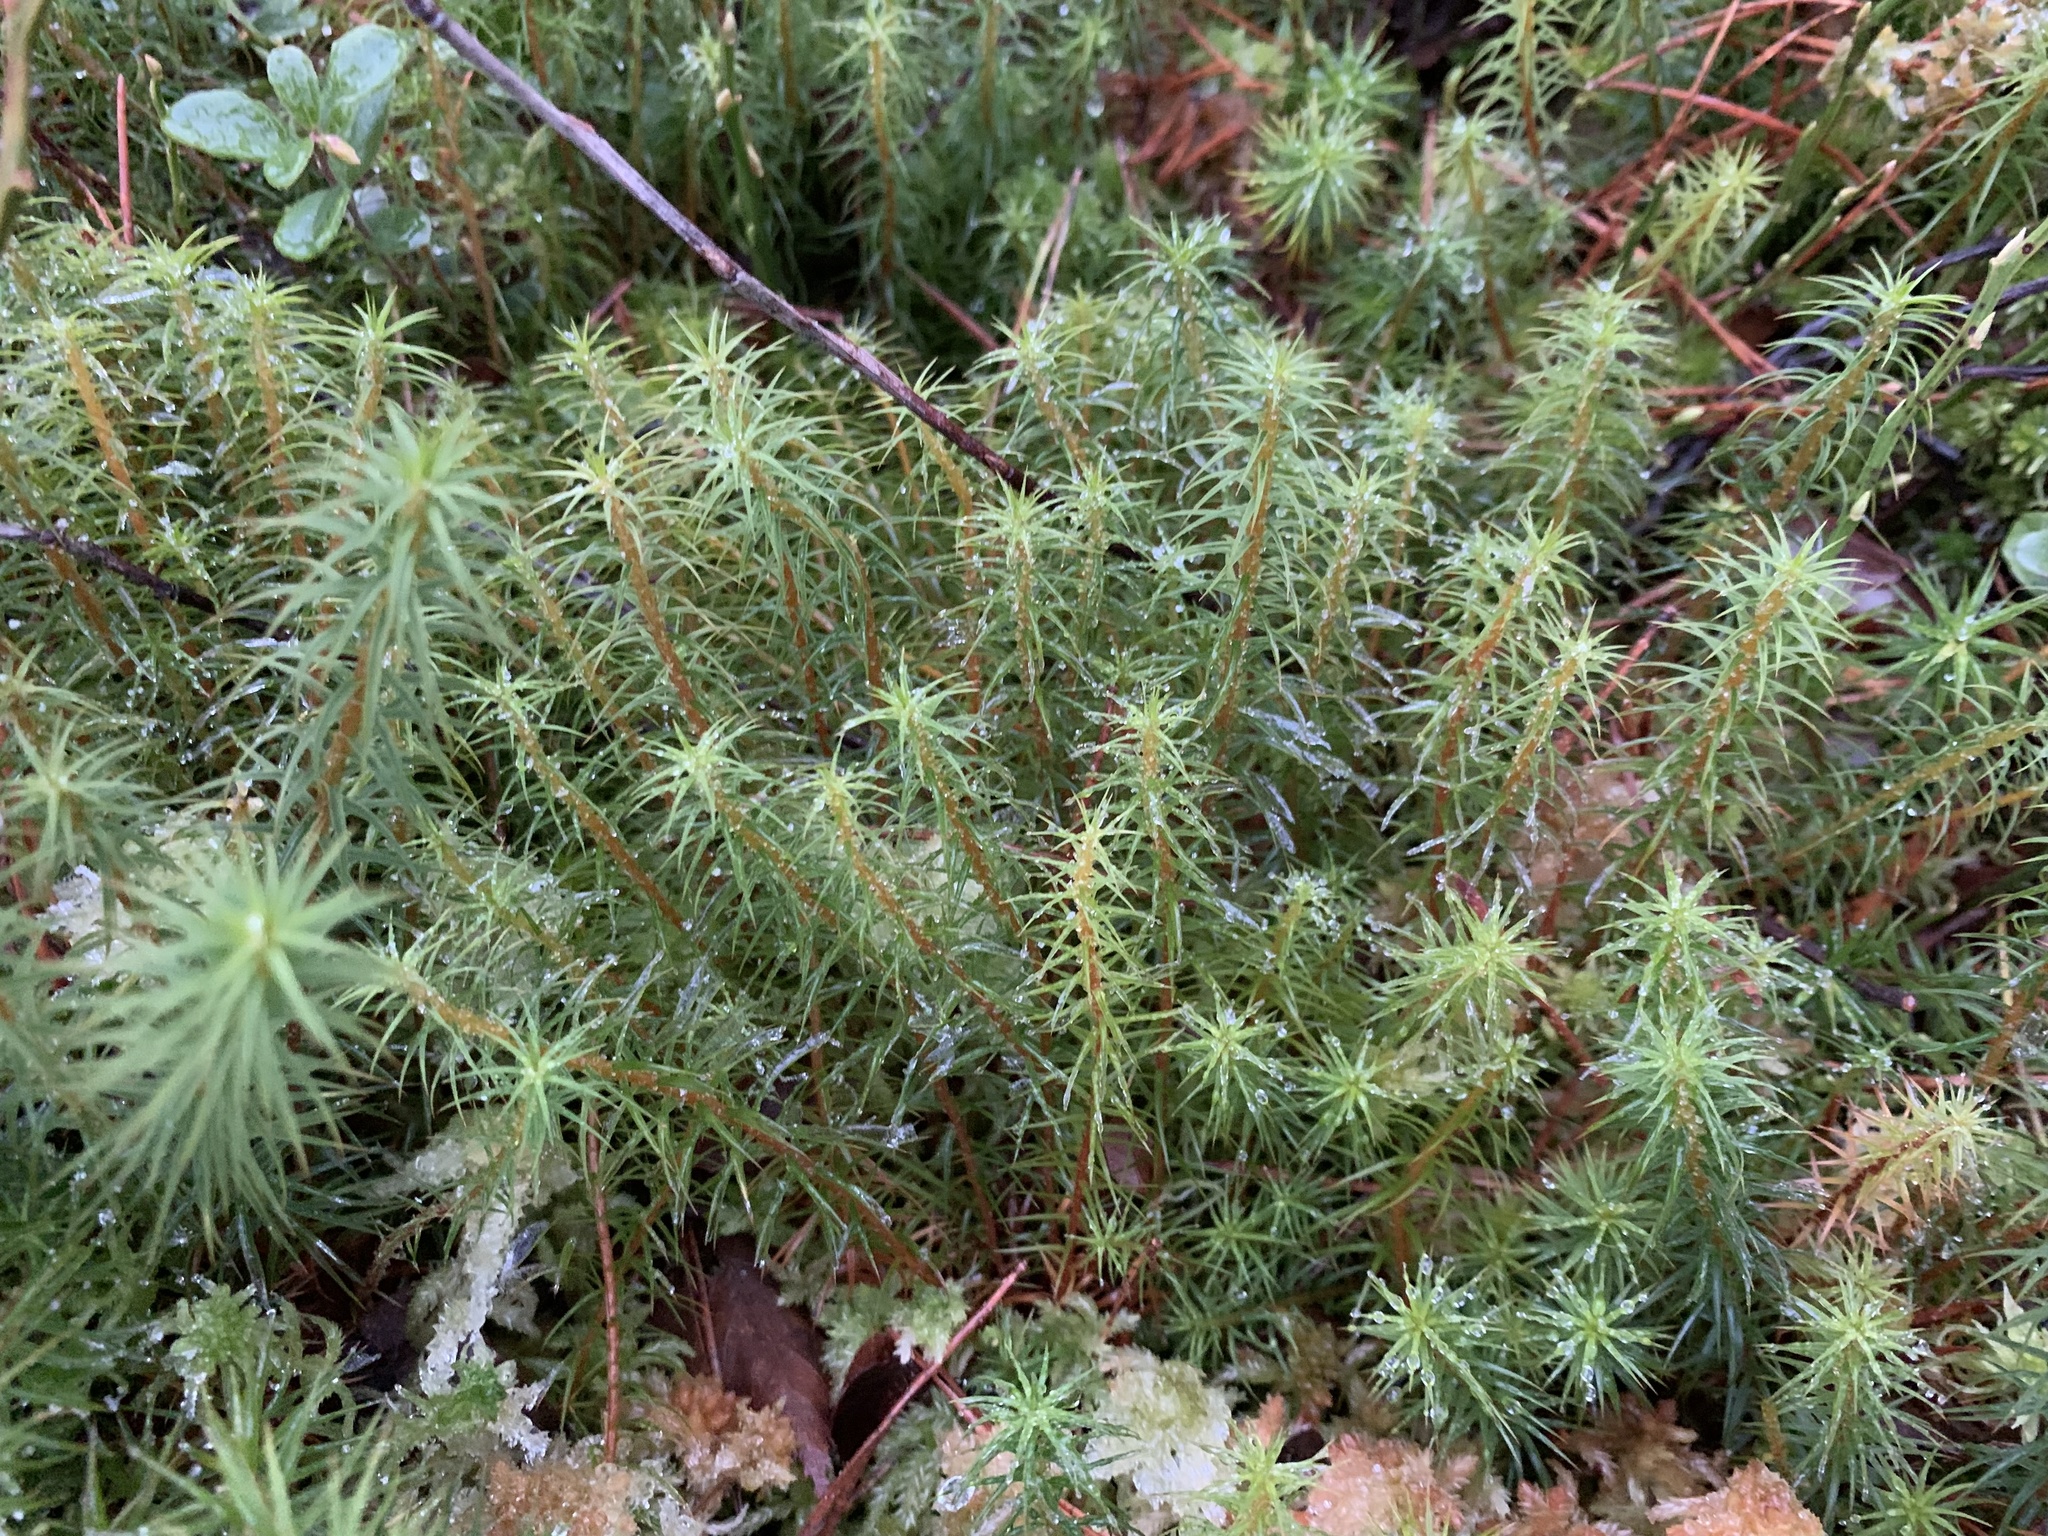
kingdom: Plantae
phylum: Bryophyta
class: Polytrichopsida
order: Polytrichales
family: Polytrichaceae
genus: Polytrichum
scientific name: Polytrichum commune
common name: Common haircap
